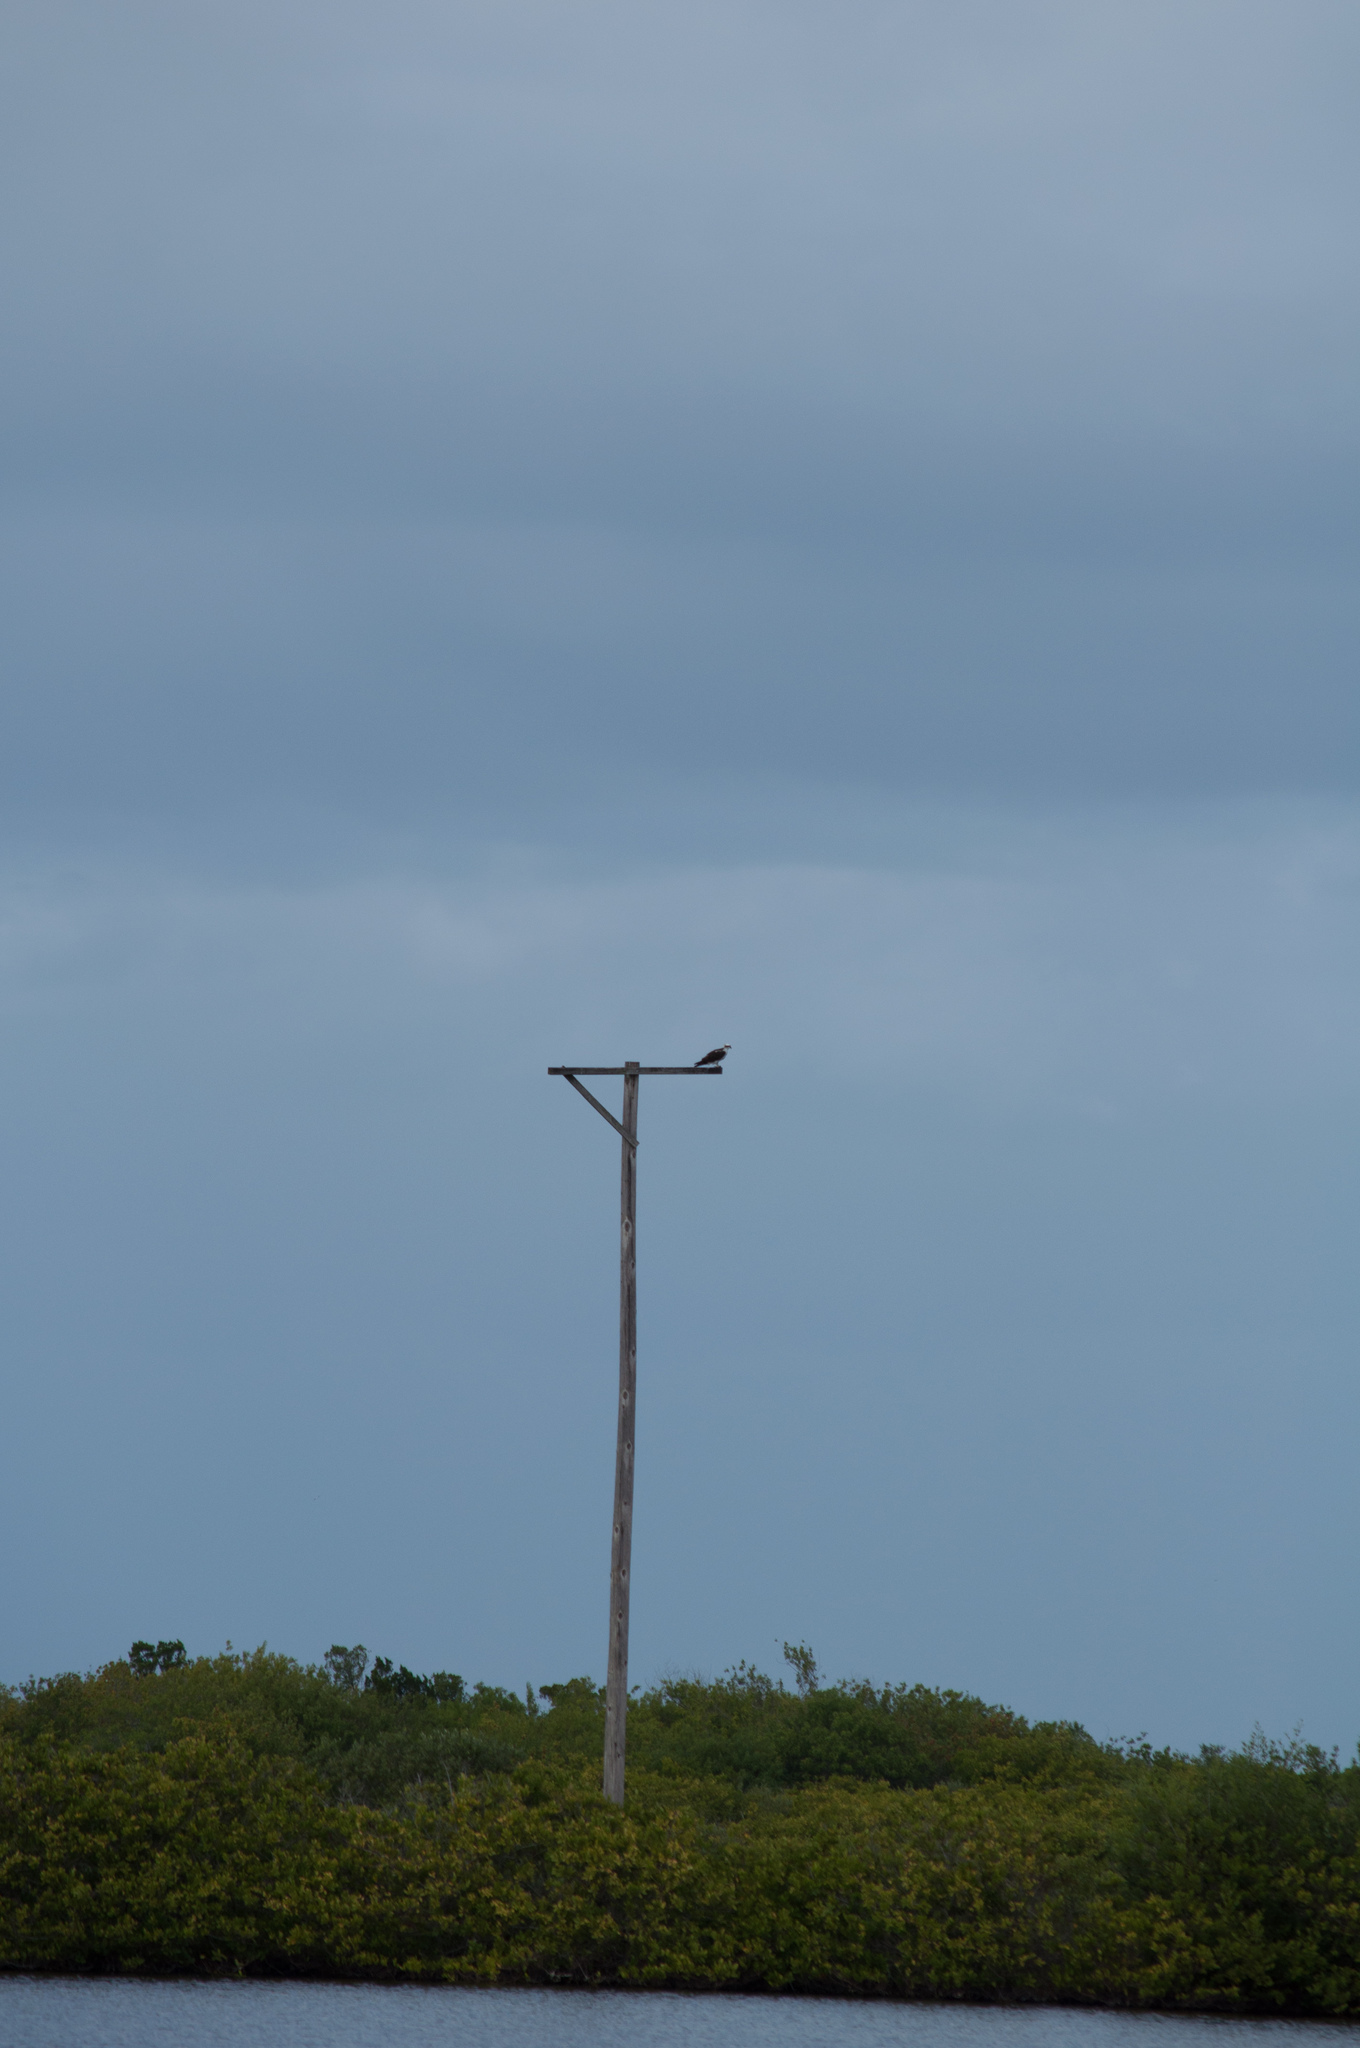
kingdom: Animalia
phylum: Chordata
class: Aves
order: Accipitriformes
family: Pandionidae
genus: Pandion
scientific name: Pandion haliaetus
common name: Osprey
